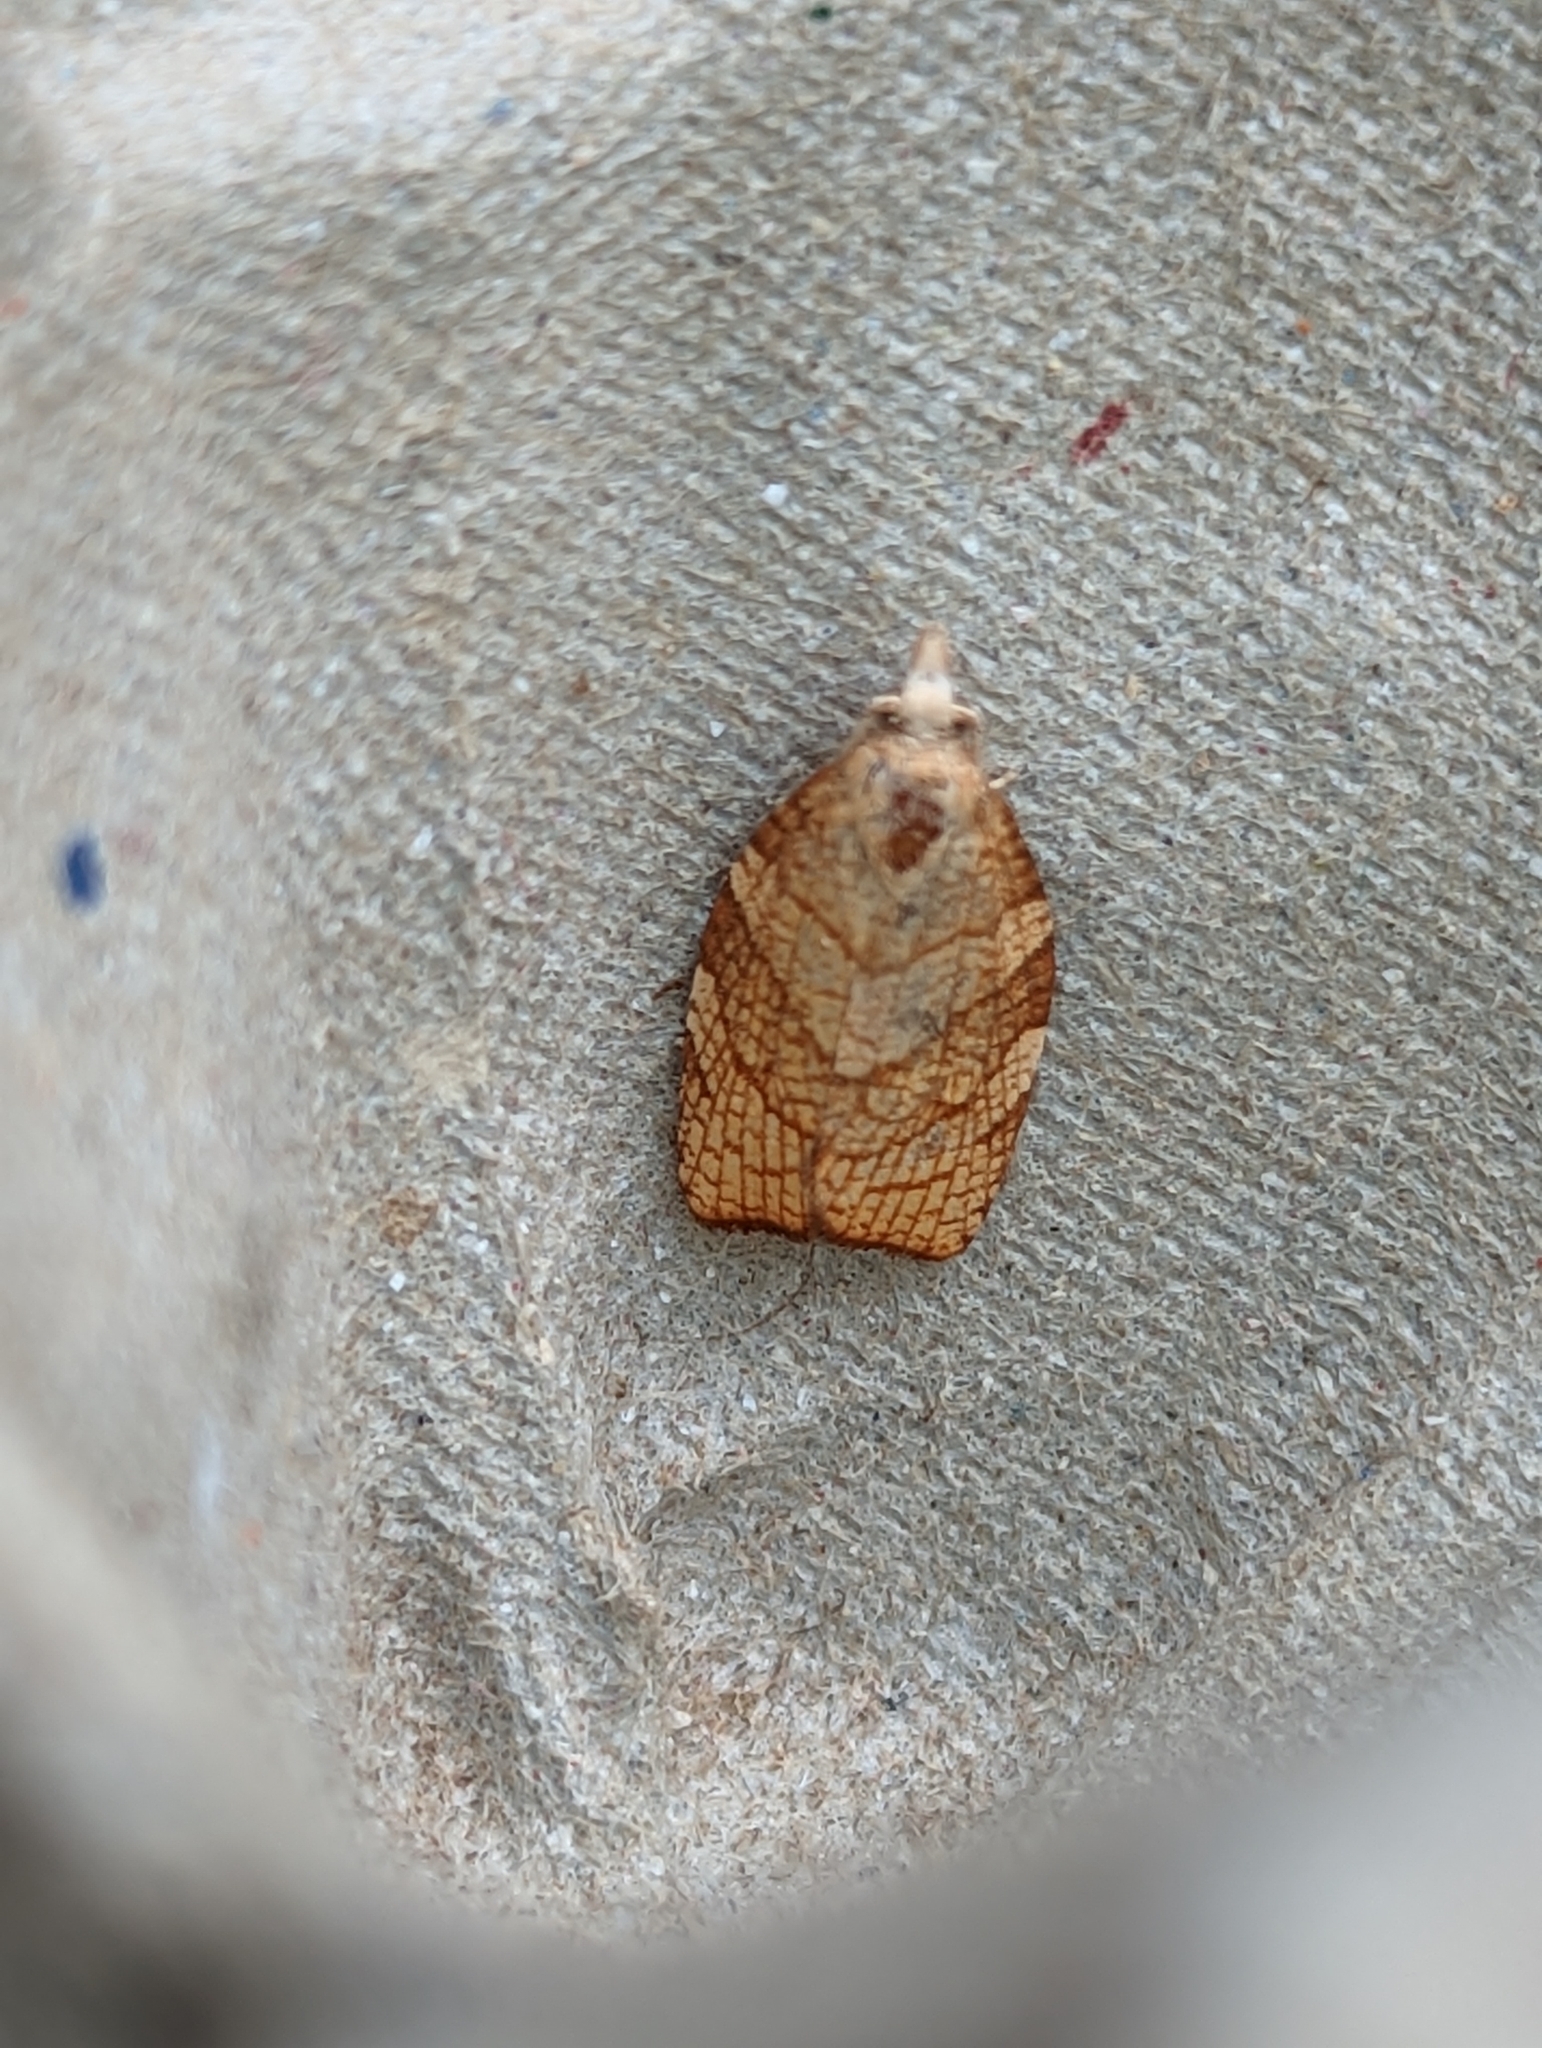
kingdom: Animalia
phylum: Arthropoda
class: Insecta
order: Lepidoptera
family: Tortricidae
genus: Pandemis
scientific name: Pandemis corylana
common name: Chequered fruit-tree tortrix
